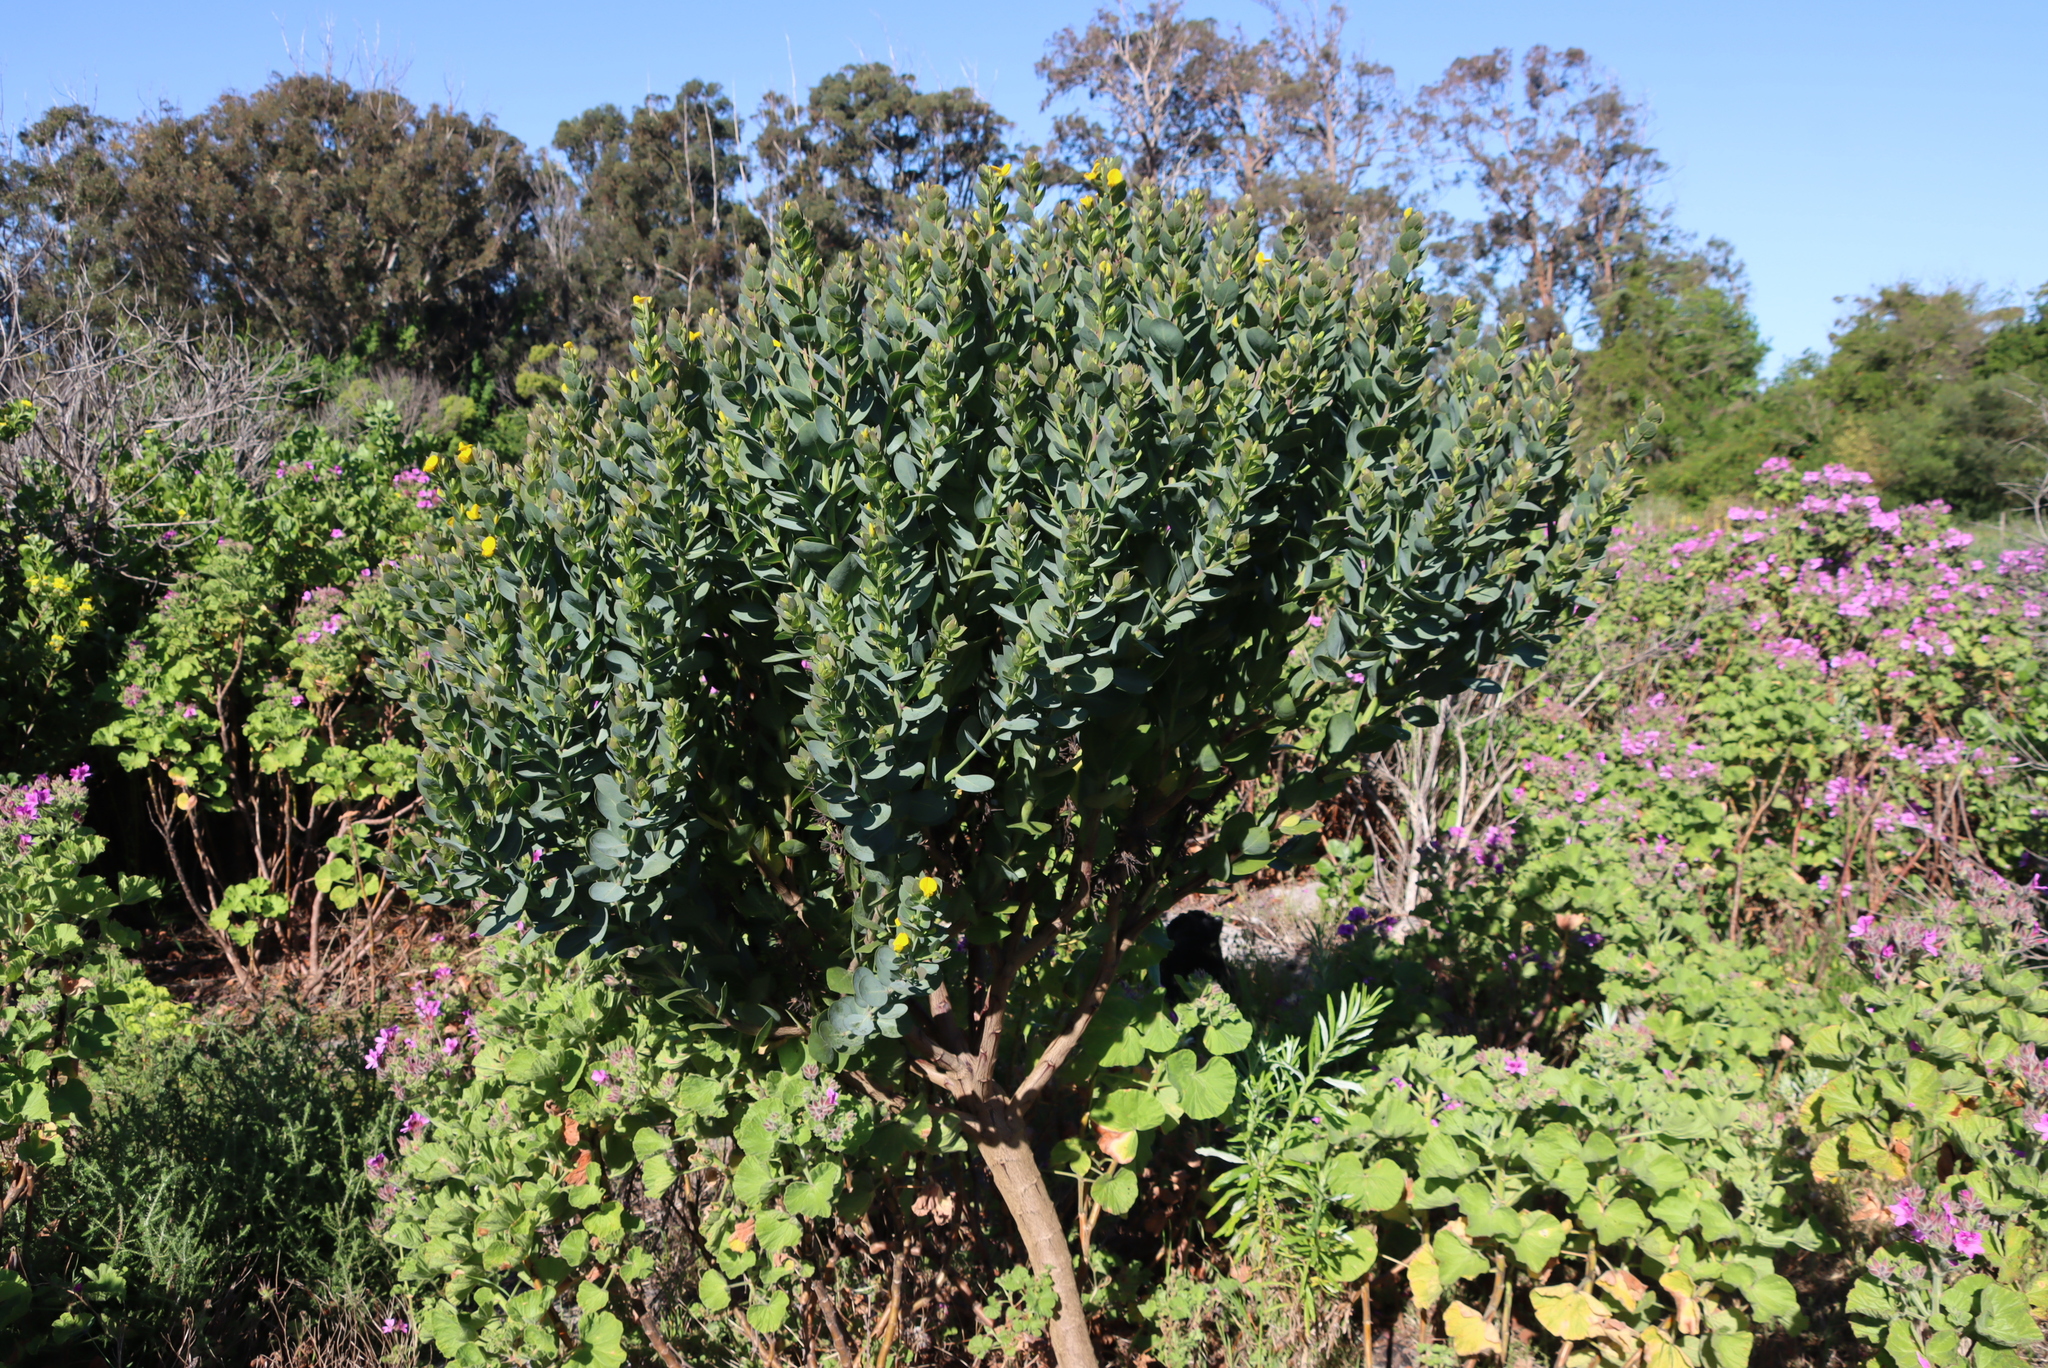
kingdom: Plantae
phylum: Tracheophyta
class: Magnoliopsida
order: Fabales
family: Fabaceae
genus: Rafnia
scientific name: Rafnia triflora
